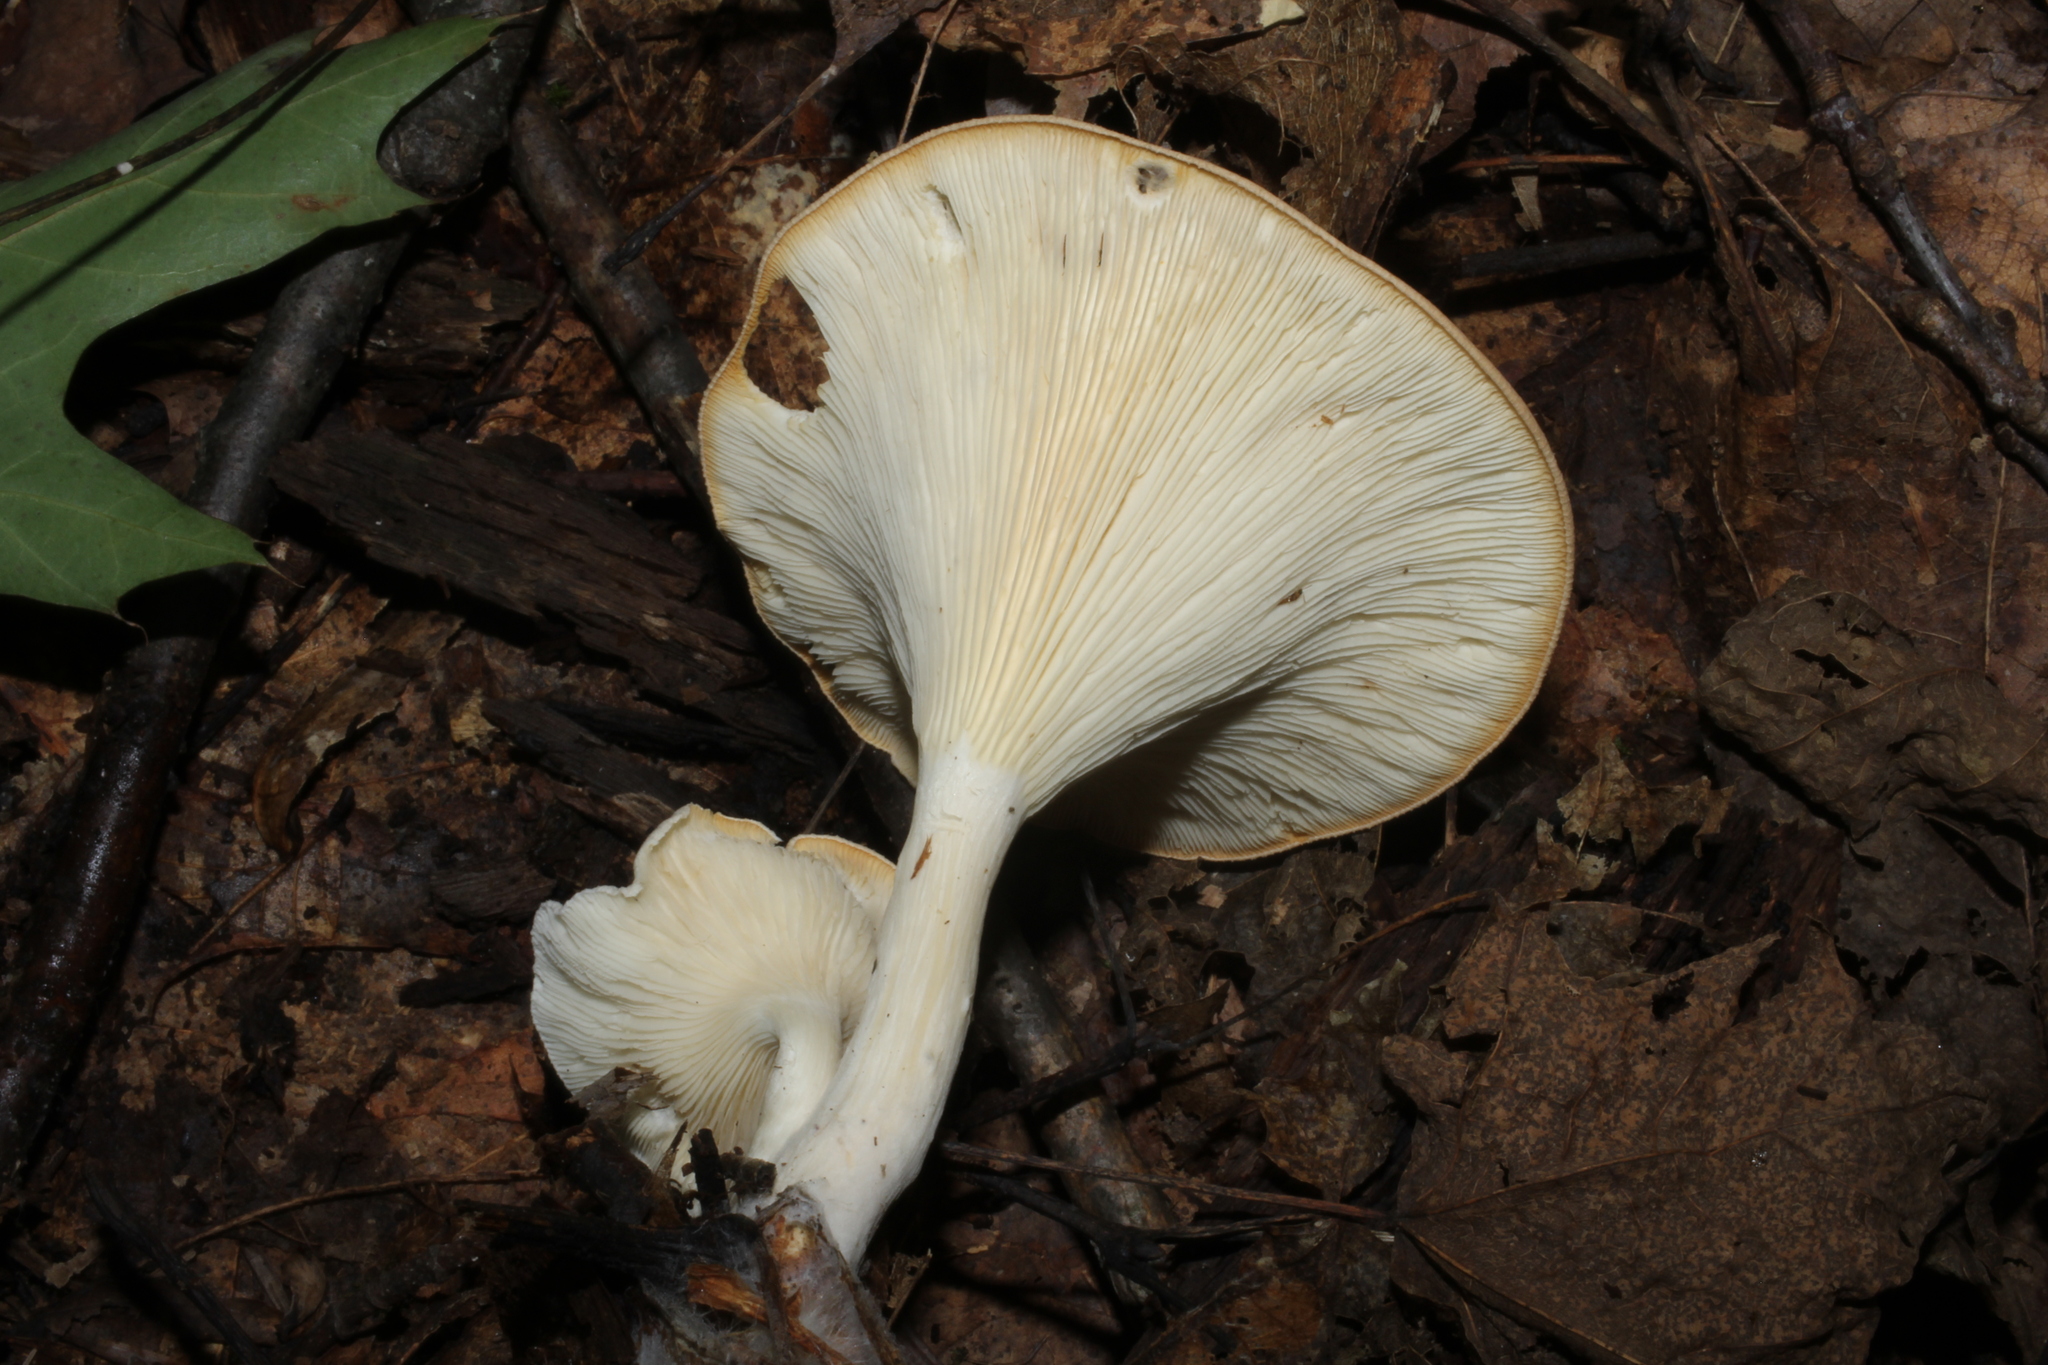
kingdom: Fungi
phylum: Basidiomycota
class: Agaricomycetes
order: Agaricales
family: Tricholomataceae
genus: Infundibulicybe
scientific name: Infundibulicybe gibba
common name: Common funnel
